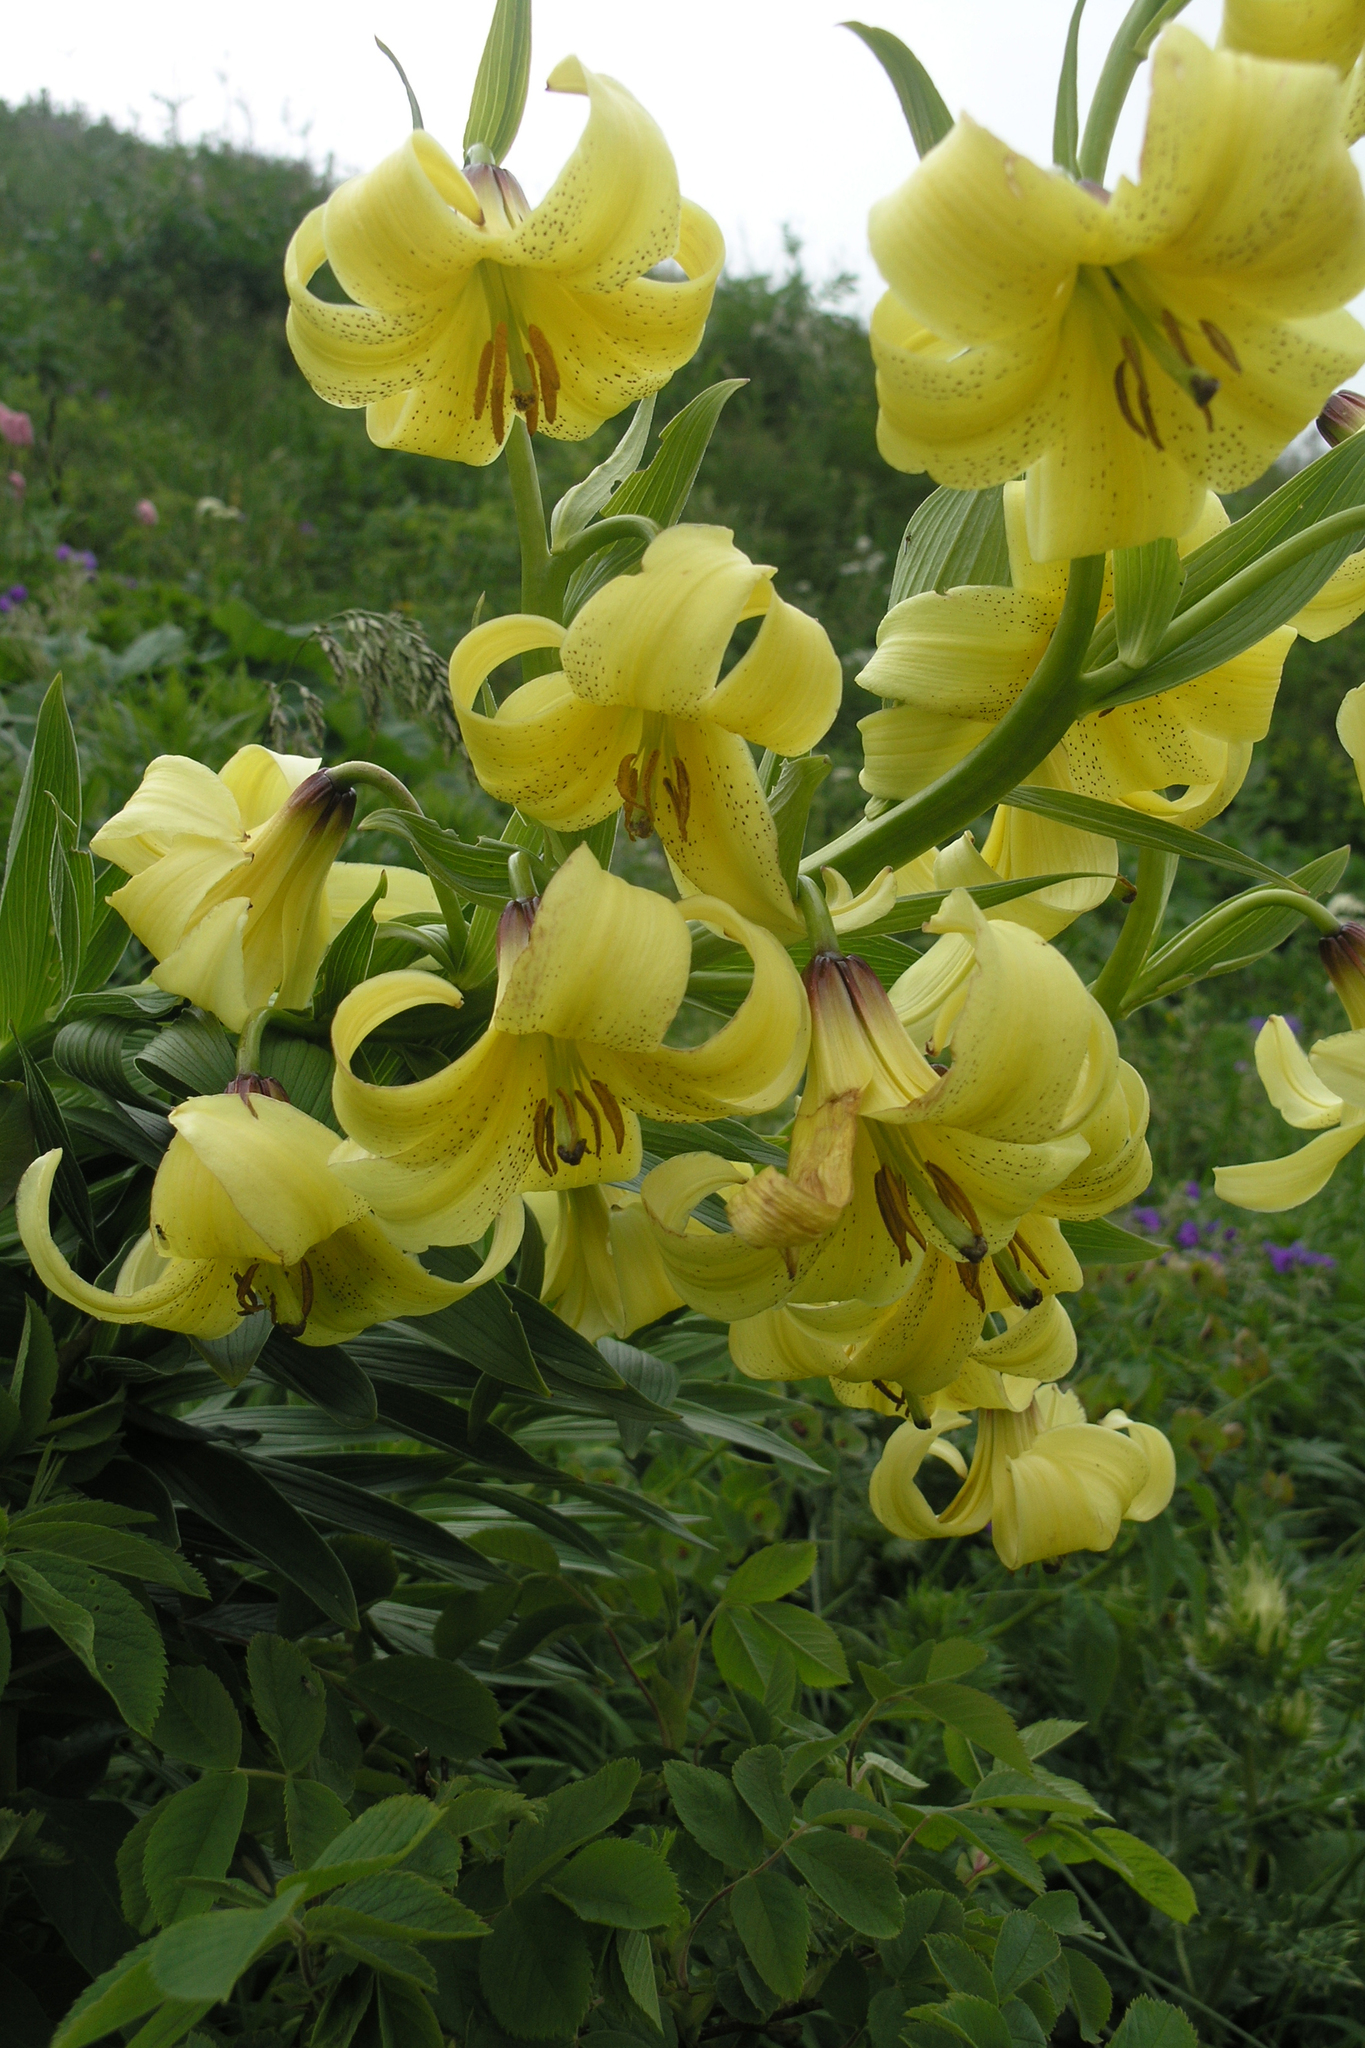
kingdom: Plantae
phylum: Tracheophyta
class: Liliopsida
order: Liliales
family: Liliaceae
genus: Lilium
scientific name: Lilium kesselringianum
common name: Kesselring lily
